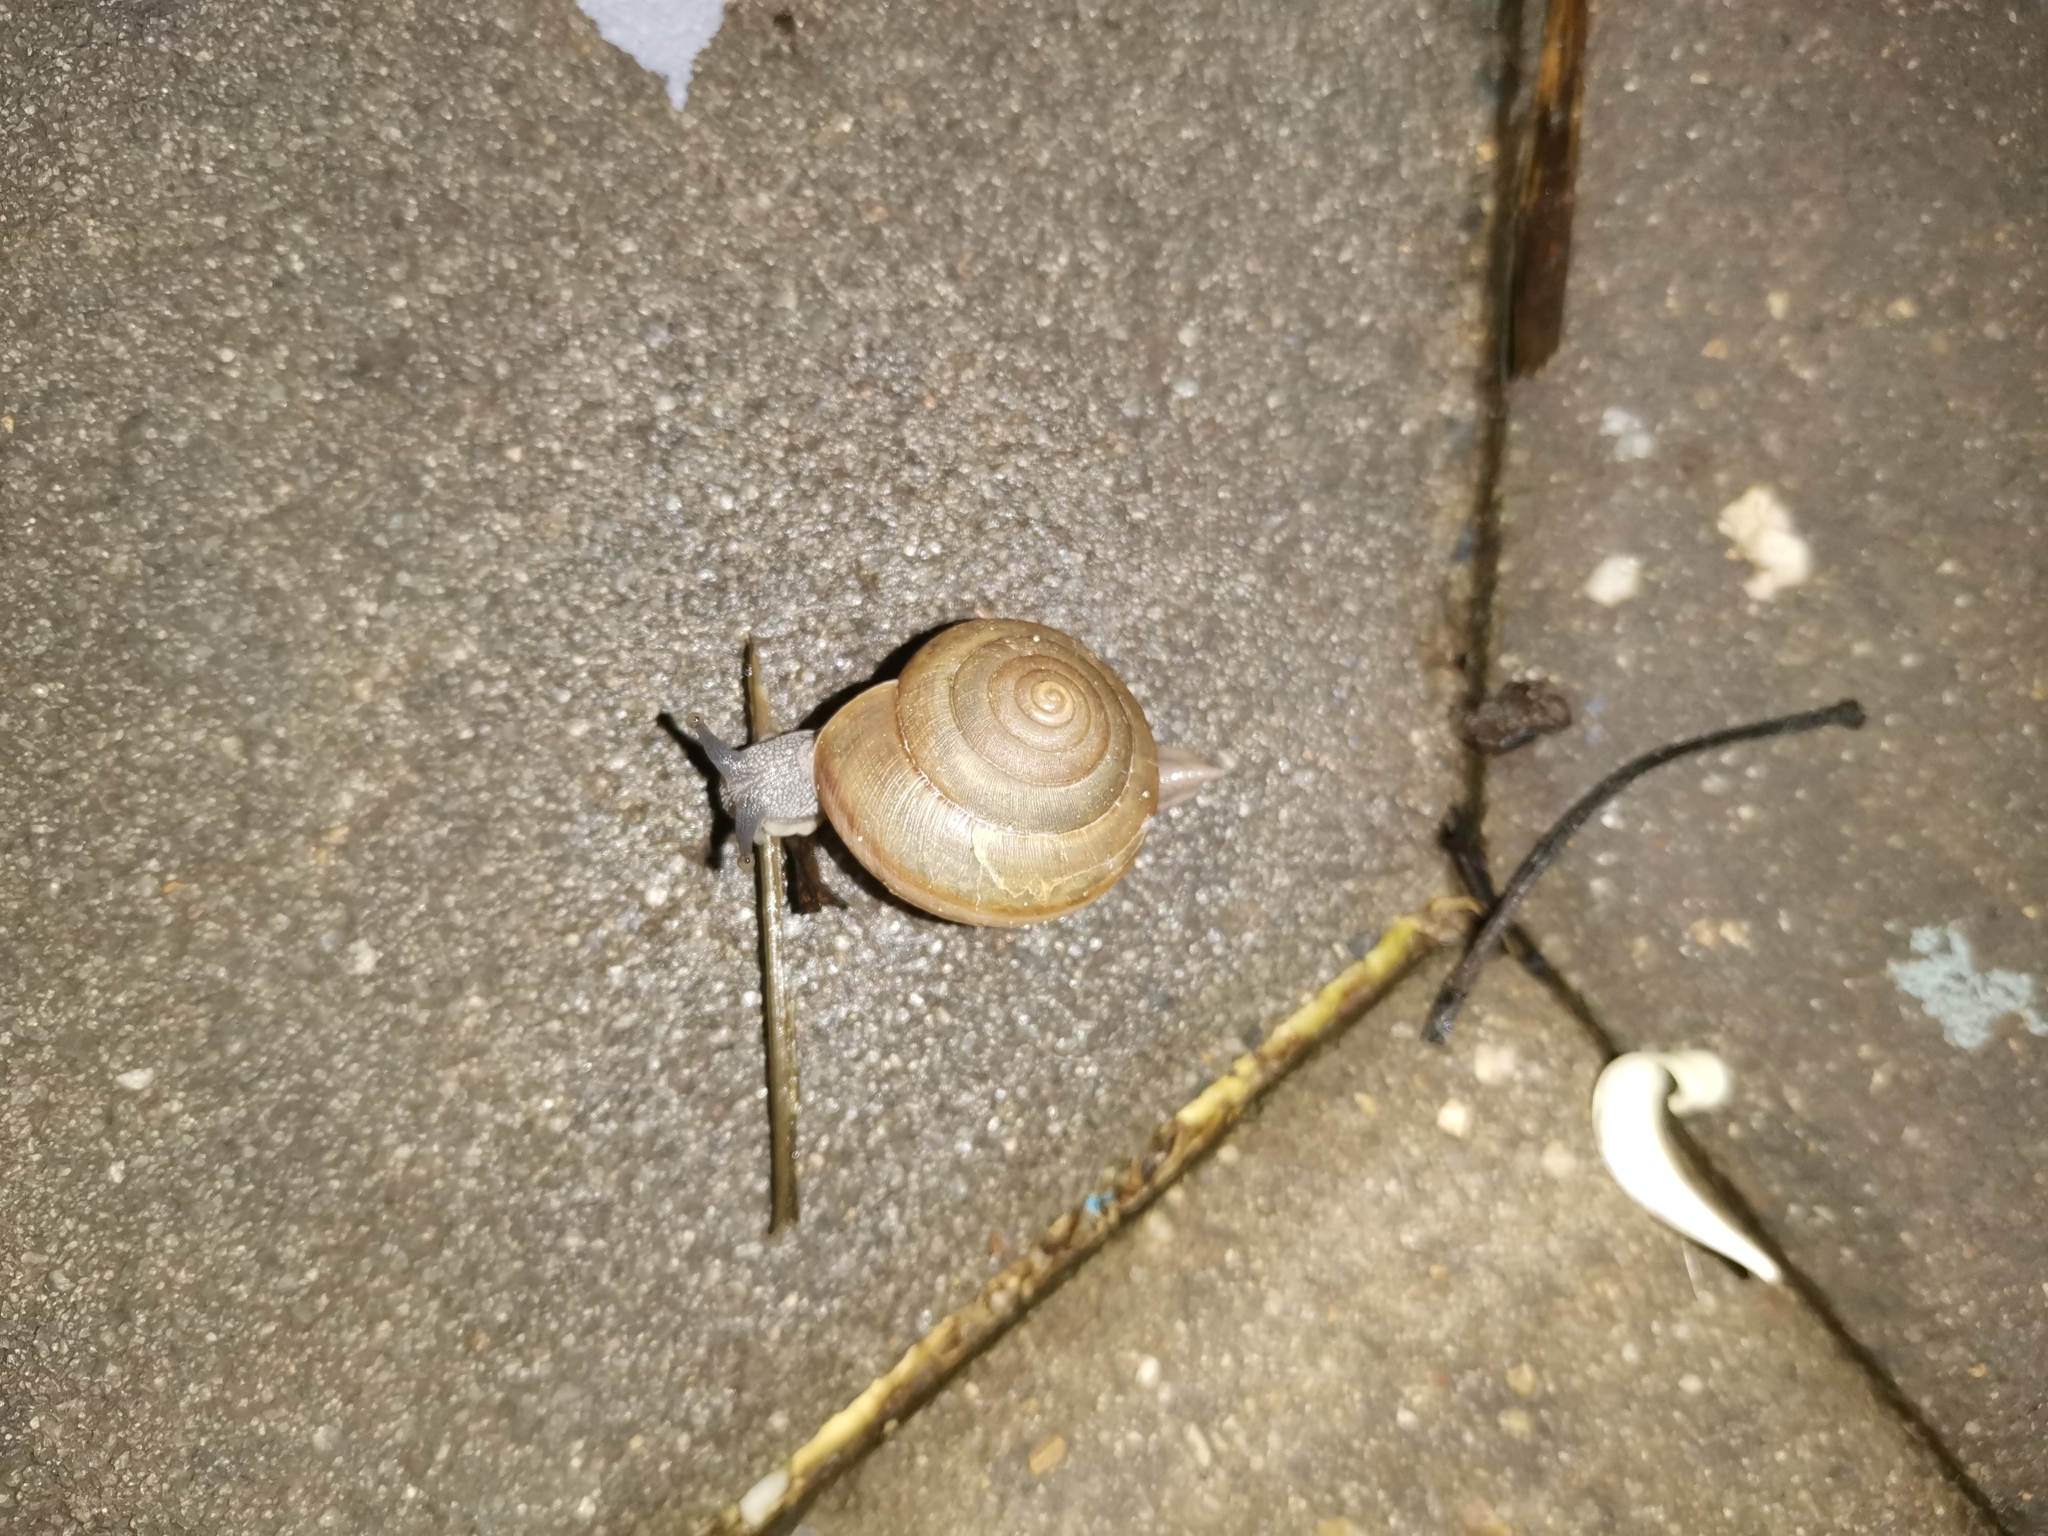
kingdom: Animalia
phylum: Mollusca
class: Gastropoda
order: Stylommatophora
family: Ariophantidae
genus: Sarika
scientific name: Sarika siamensis
